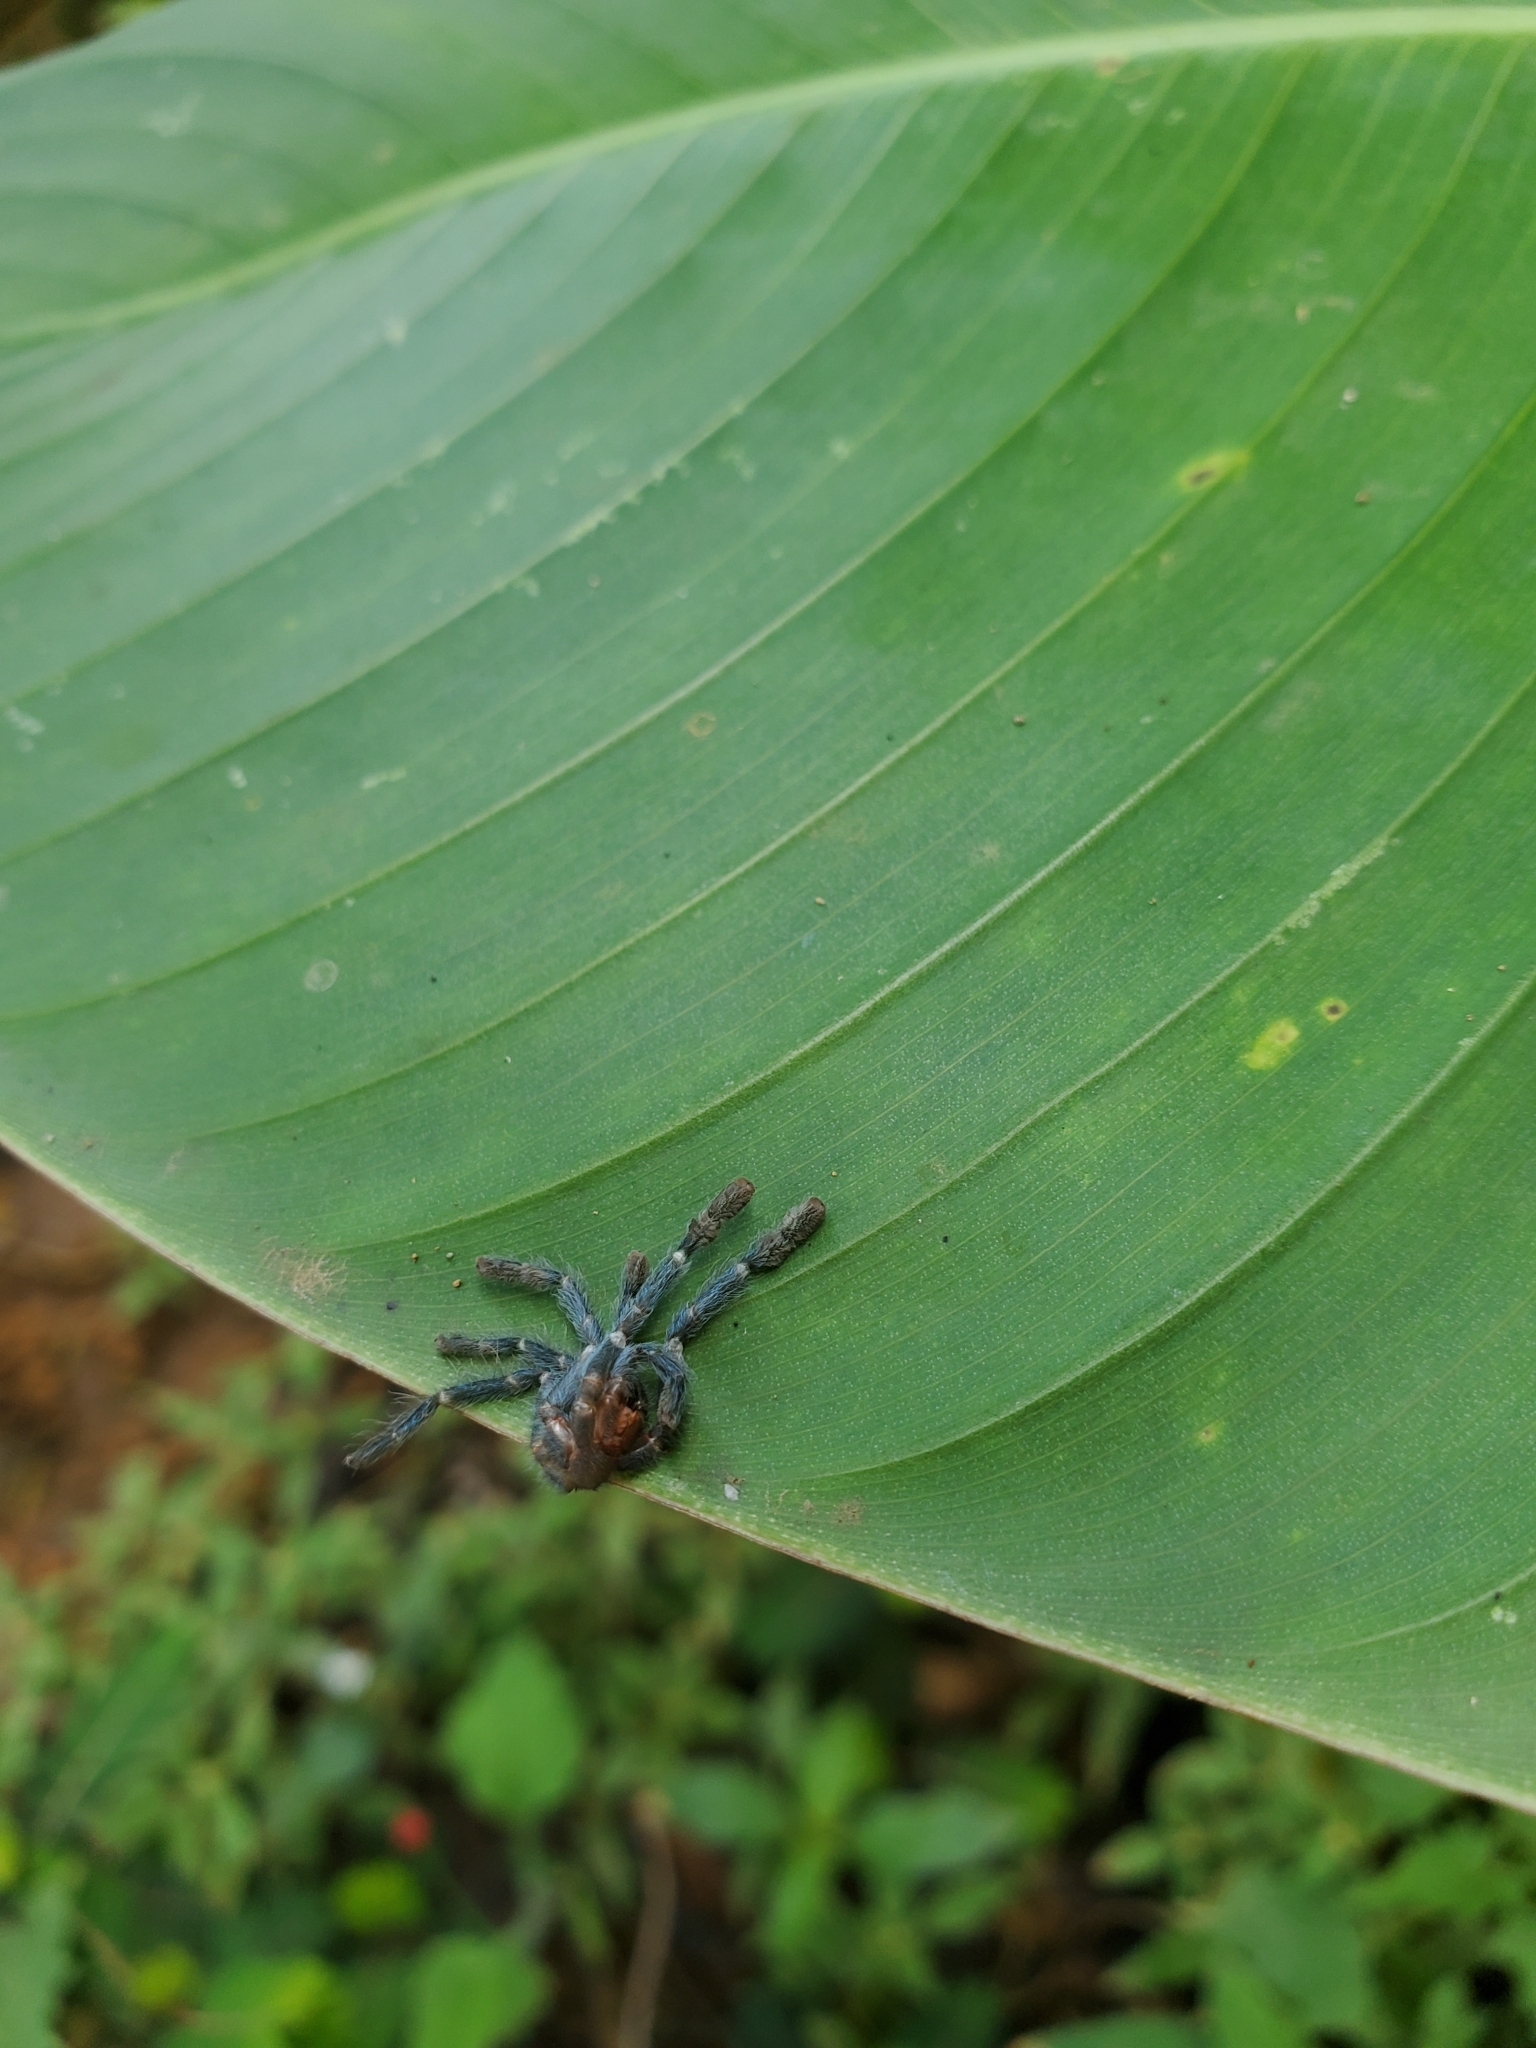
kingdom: Animalia
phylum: Arthropoda
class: Arachnida
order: Araneae
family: Theraphosidae
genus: Caribena
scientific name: Caribena laeta
